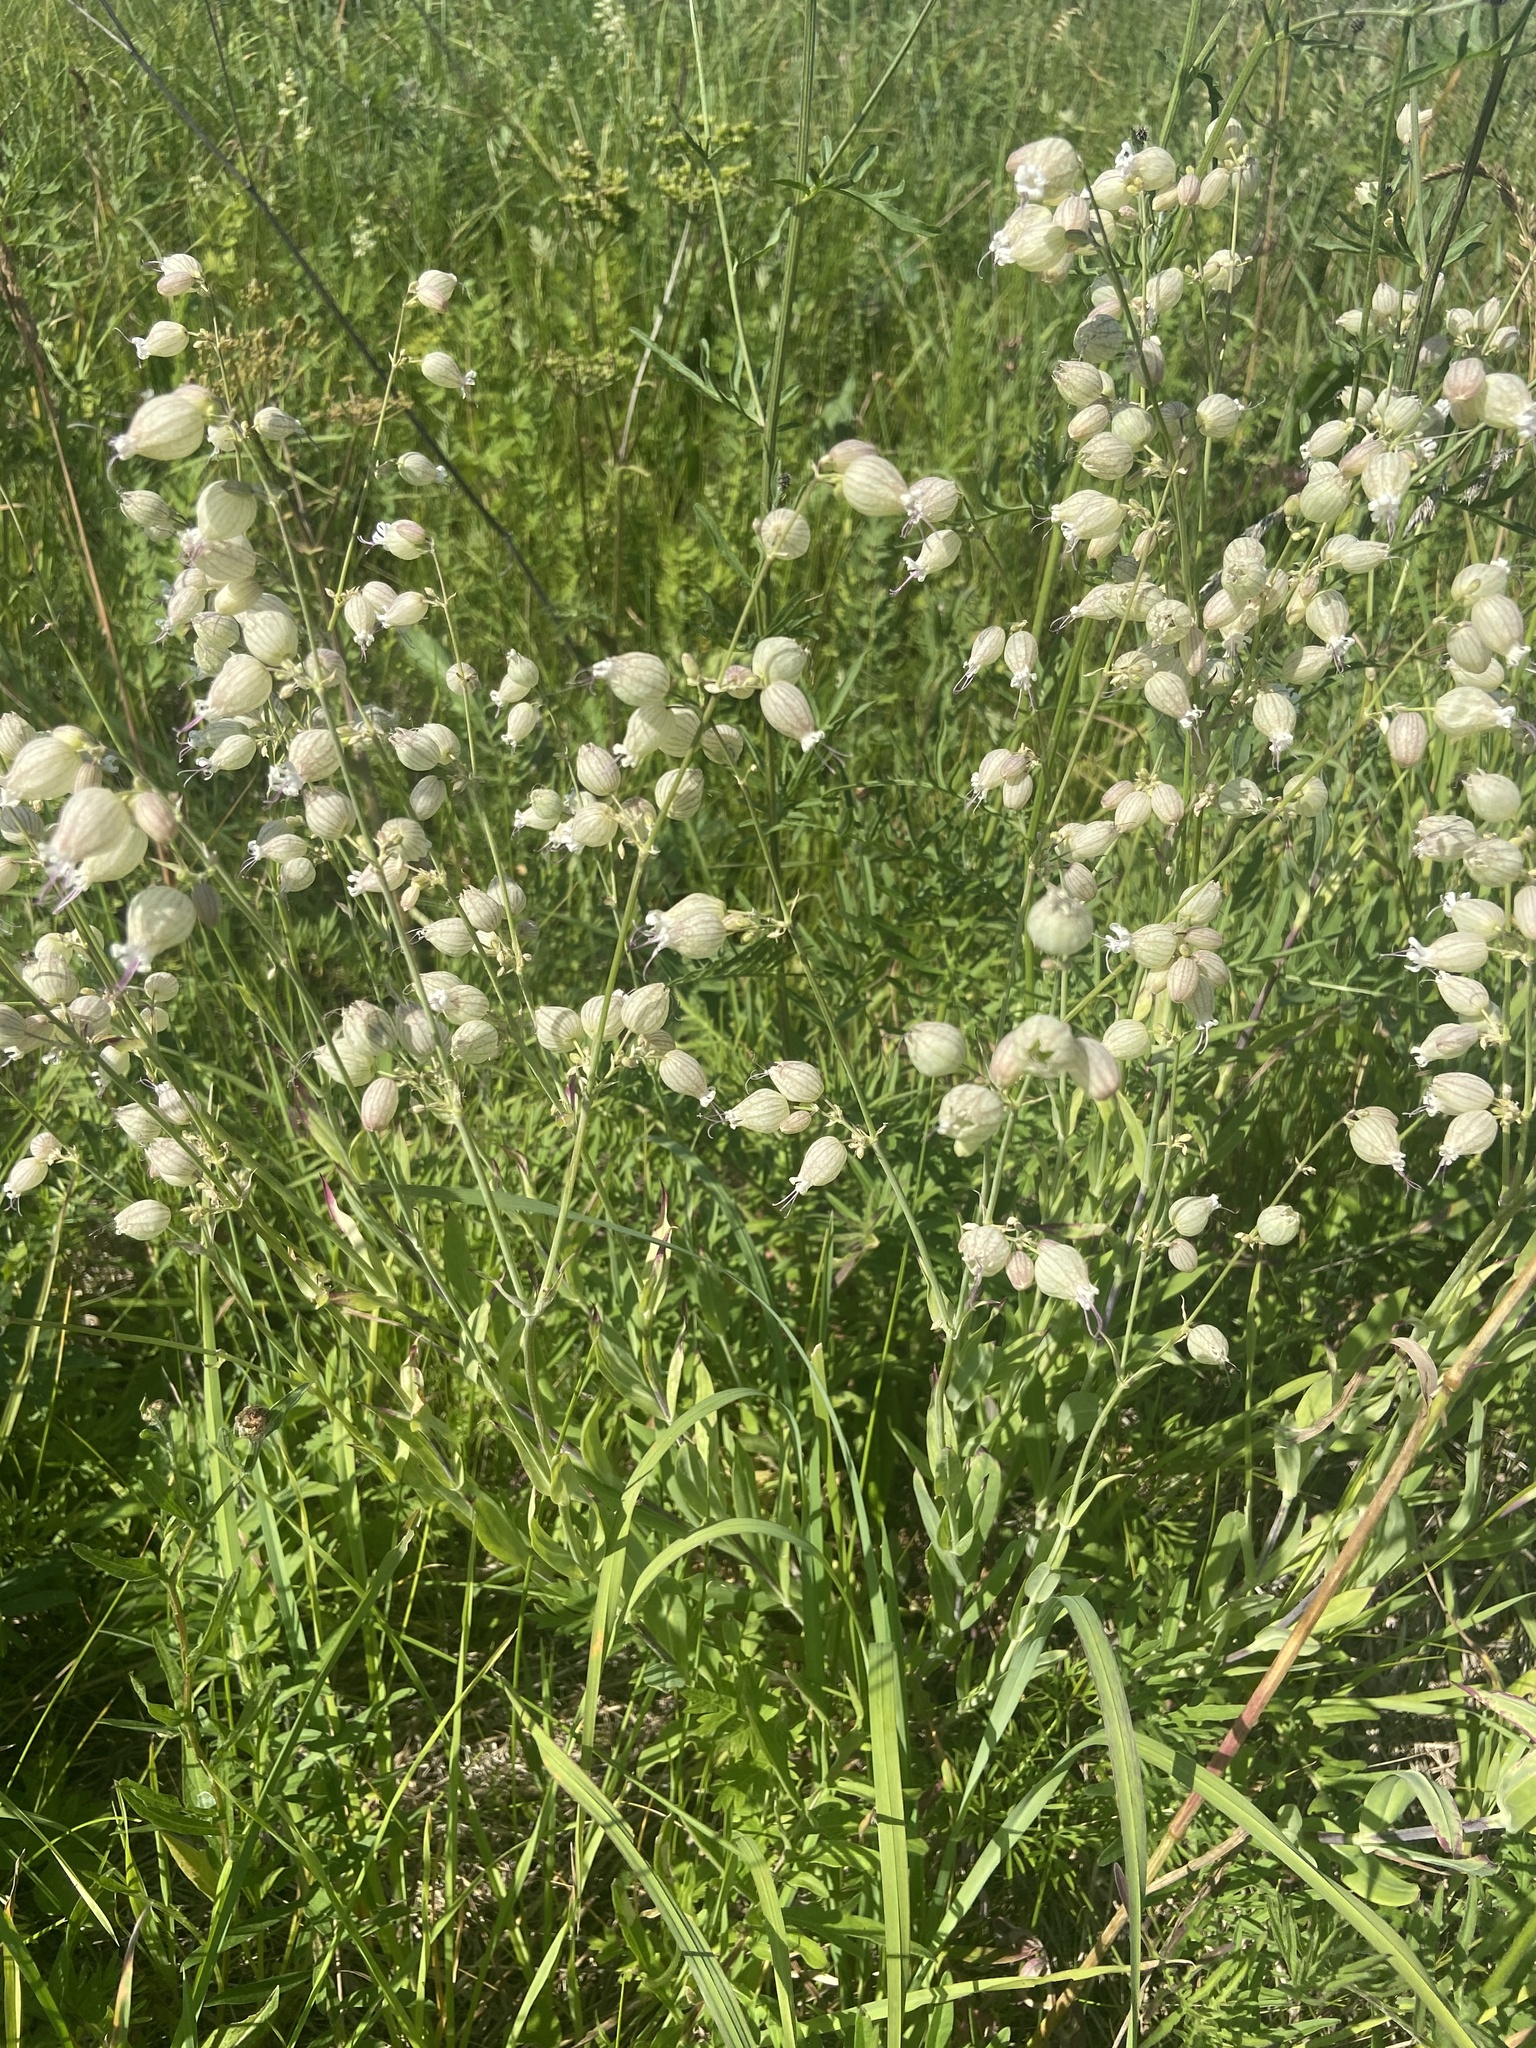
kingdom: Plantae
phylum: Tracheophyta
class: Magnoliopsida
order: Caryophyllales
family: Caryophyllaceae
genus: Silene
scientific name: Silene vulgaris
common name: Bladder campion
